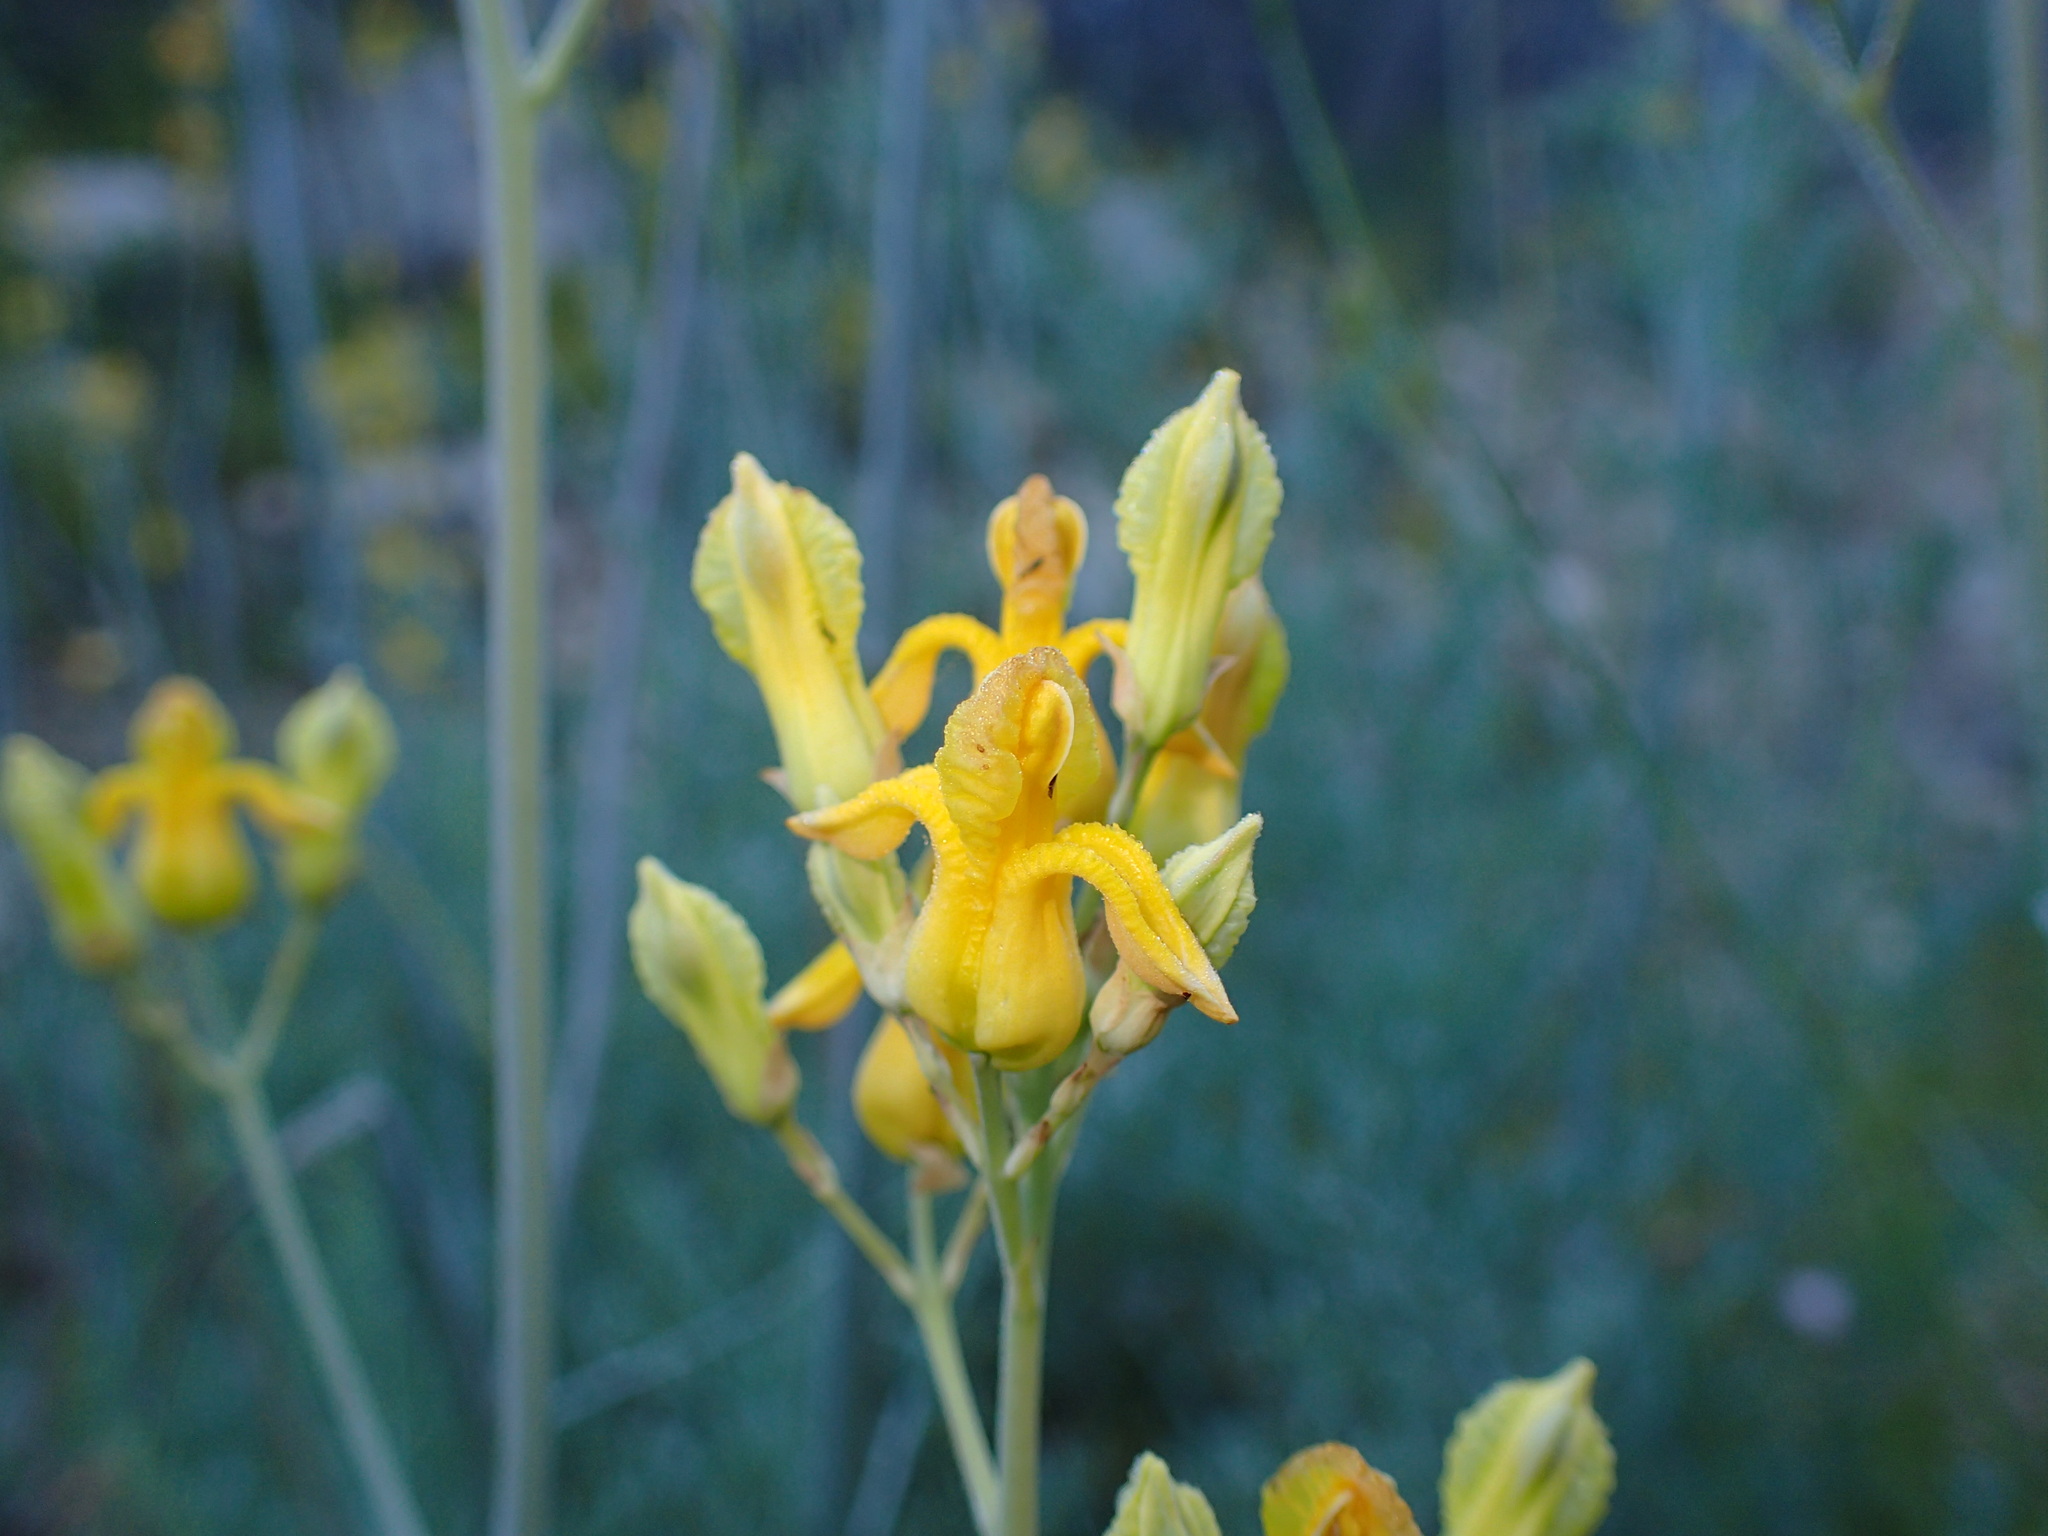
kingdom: Plantae
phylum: Tracheophyta
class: Magnoliopsida
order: Ranunculales
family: Papaveraceae
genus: Ehrendorferia
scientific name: Ehrendorferia chrysantha
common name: Golden eardrops
